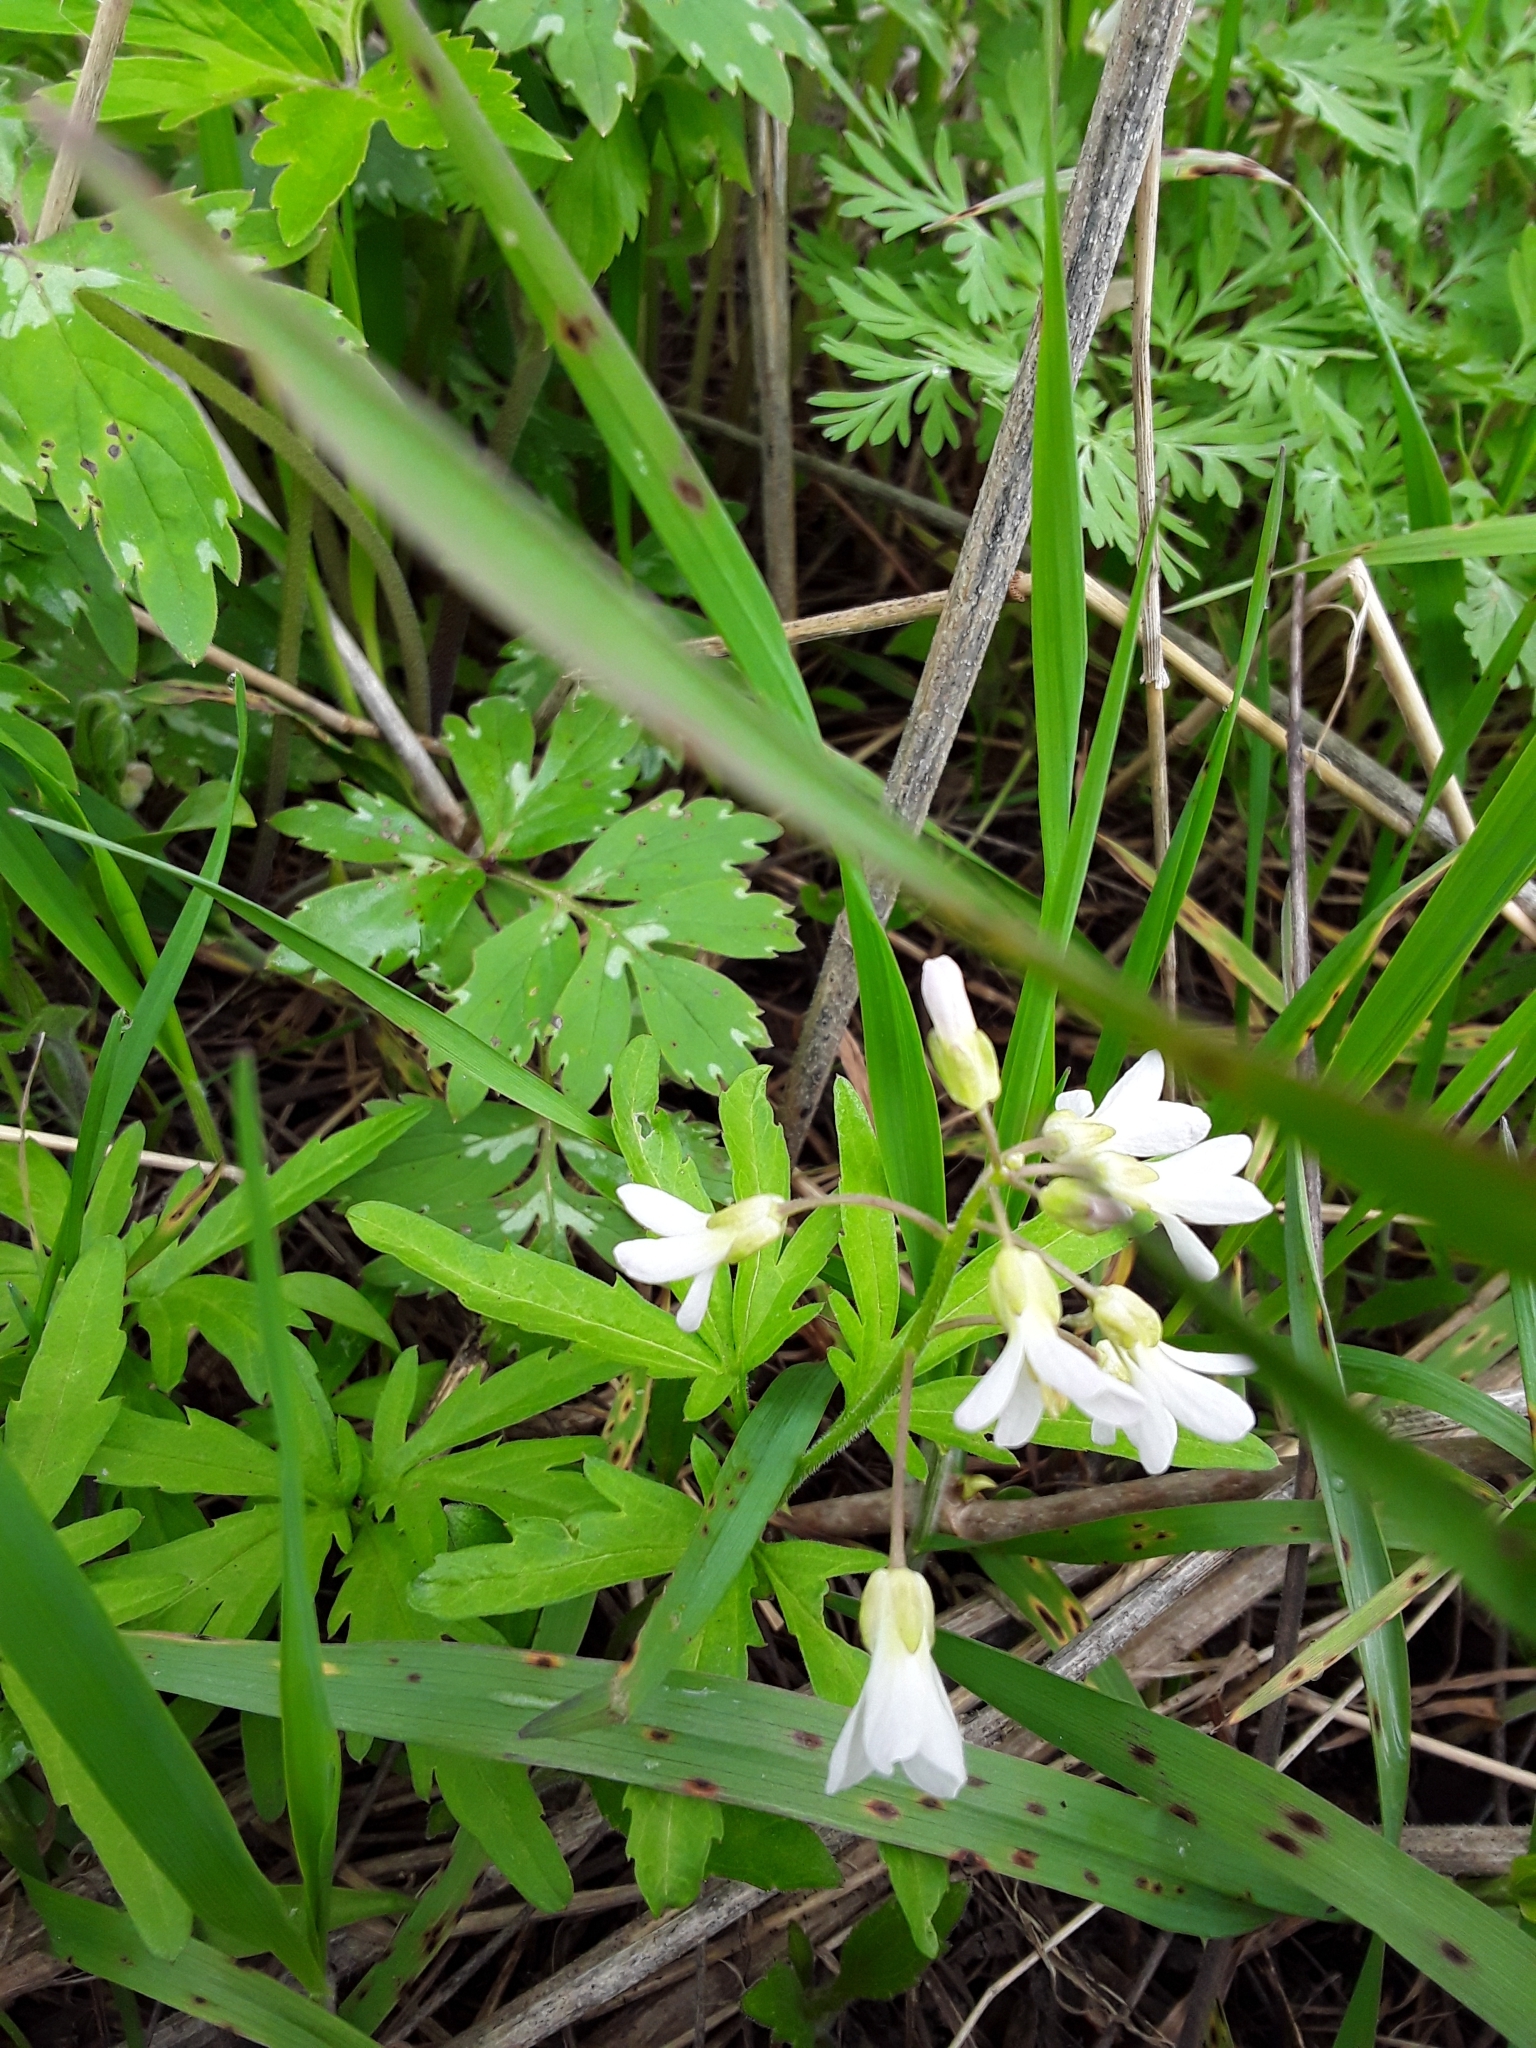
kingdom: Plantae
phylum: Tracheophyta
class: Magnoliopsida
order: Brassicales
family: Brassicaceae
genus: Cardamine
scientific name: Cardamine concatenata
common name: Cut-leaf toothcup
